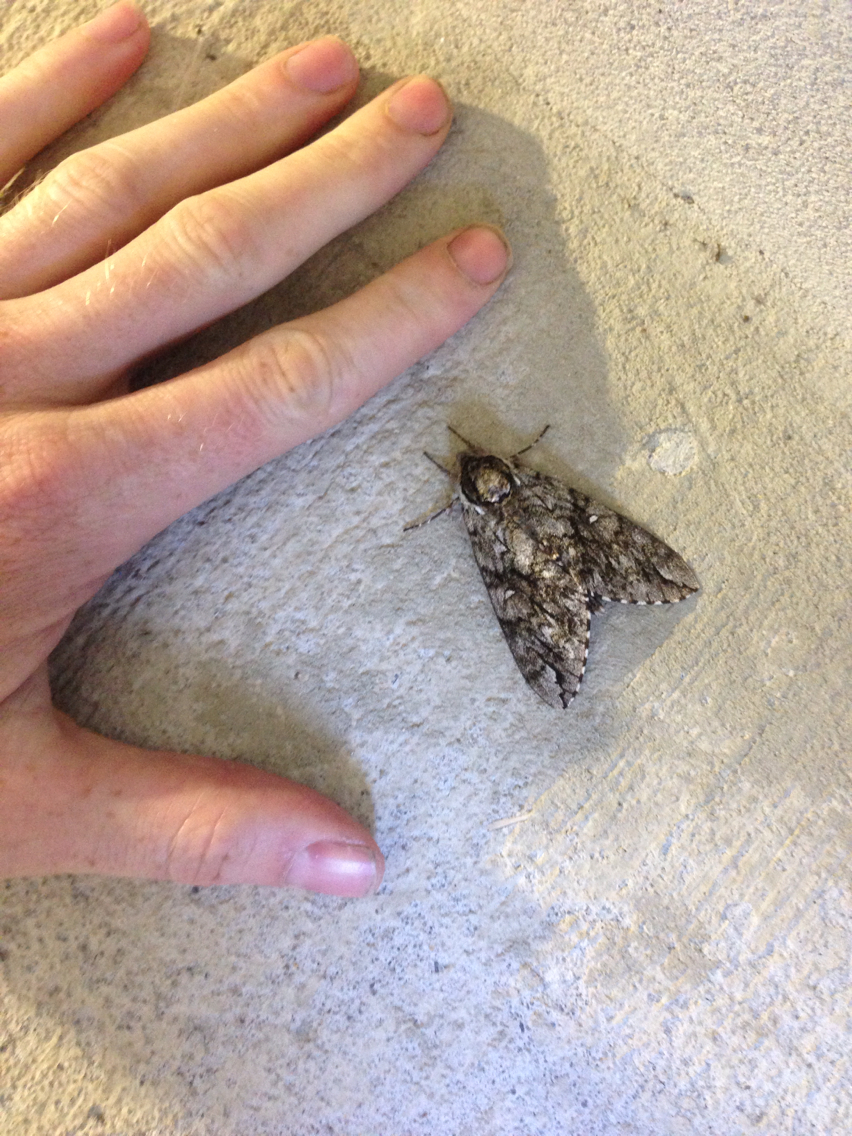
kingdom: Animalia
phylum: Arthropoda
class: Insecta
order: Lepidoptera
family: Sphingidae
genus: Ceratomia
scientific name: Ceratomia undulosa
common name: Waved sphinx
